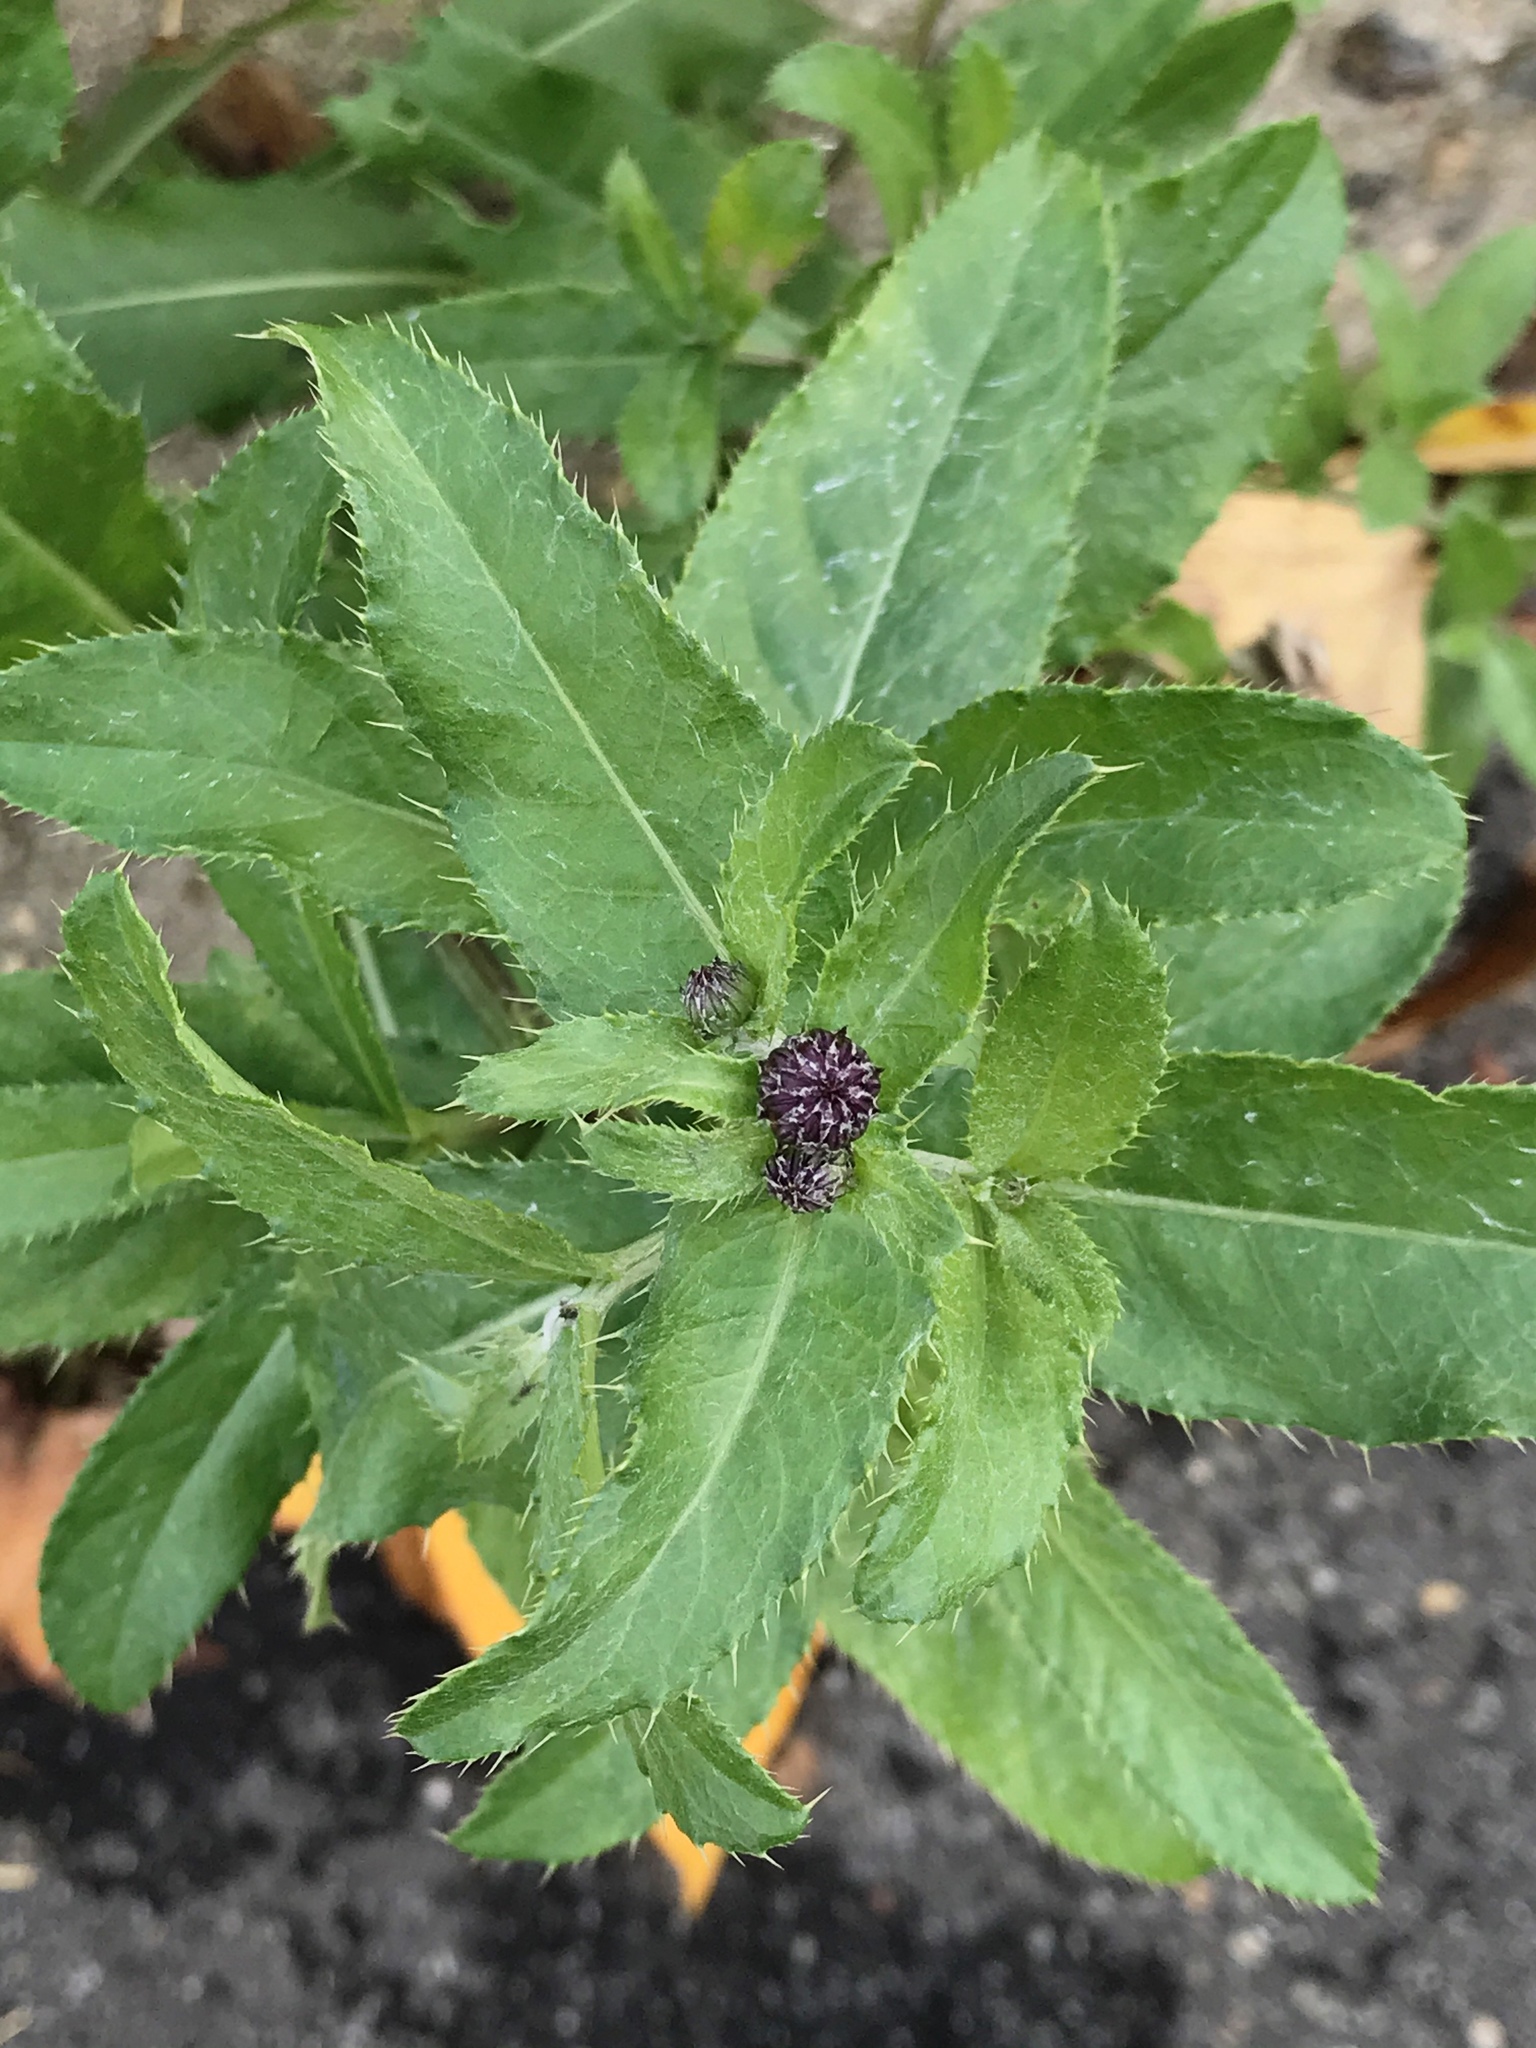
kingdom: Plantae
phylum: Tracheophyta
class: Magnoliopsida
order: Asterales
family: Asteraceae
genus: Cirsium
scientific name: Cirsium arvense
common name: Creeping thistle
